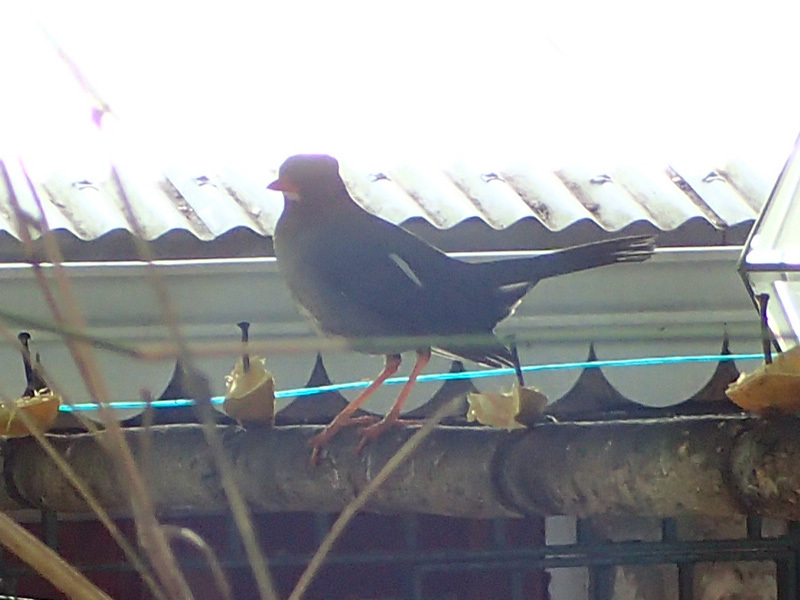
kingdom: Animalia
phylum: Chordata
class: Aves
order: Passeriformes
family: Turdidae
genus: Turdus
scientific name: Turdus aurantius
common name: White-chinned thrush
